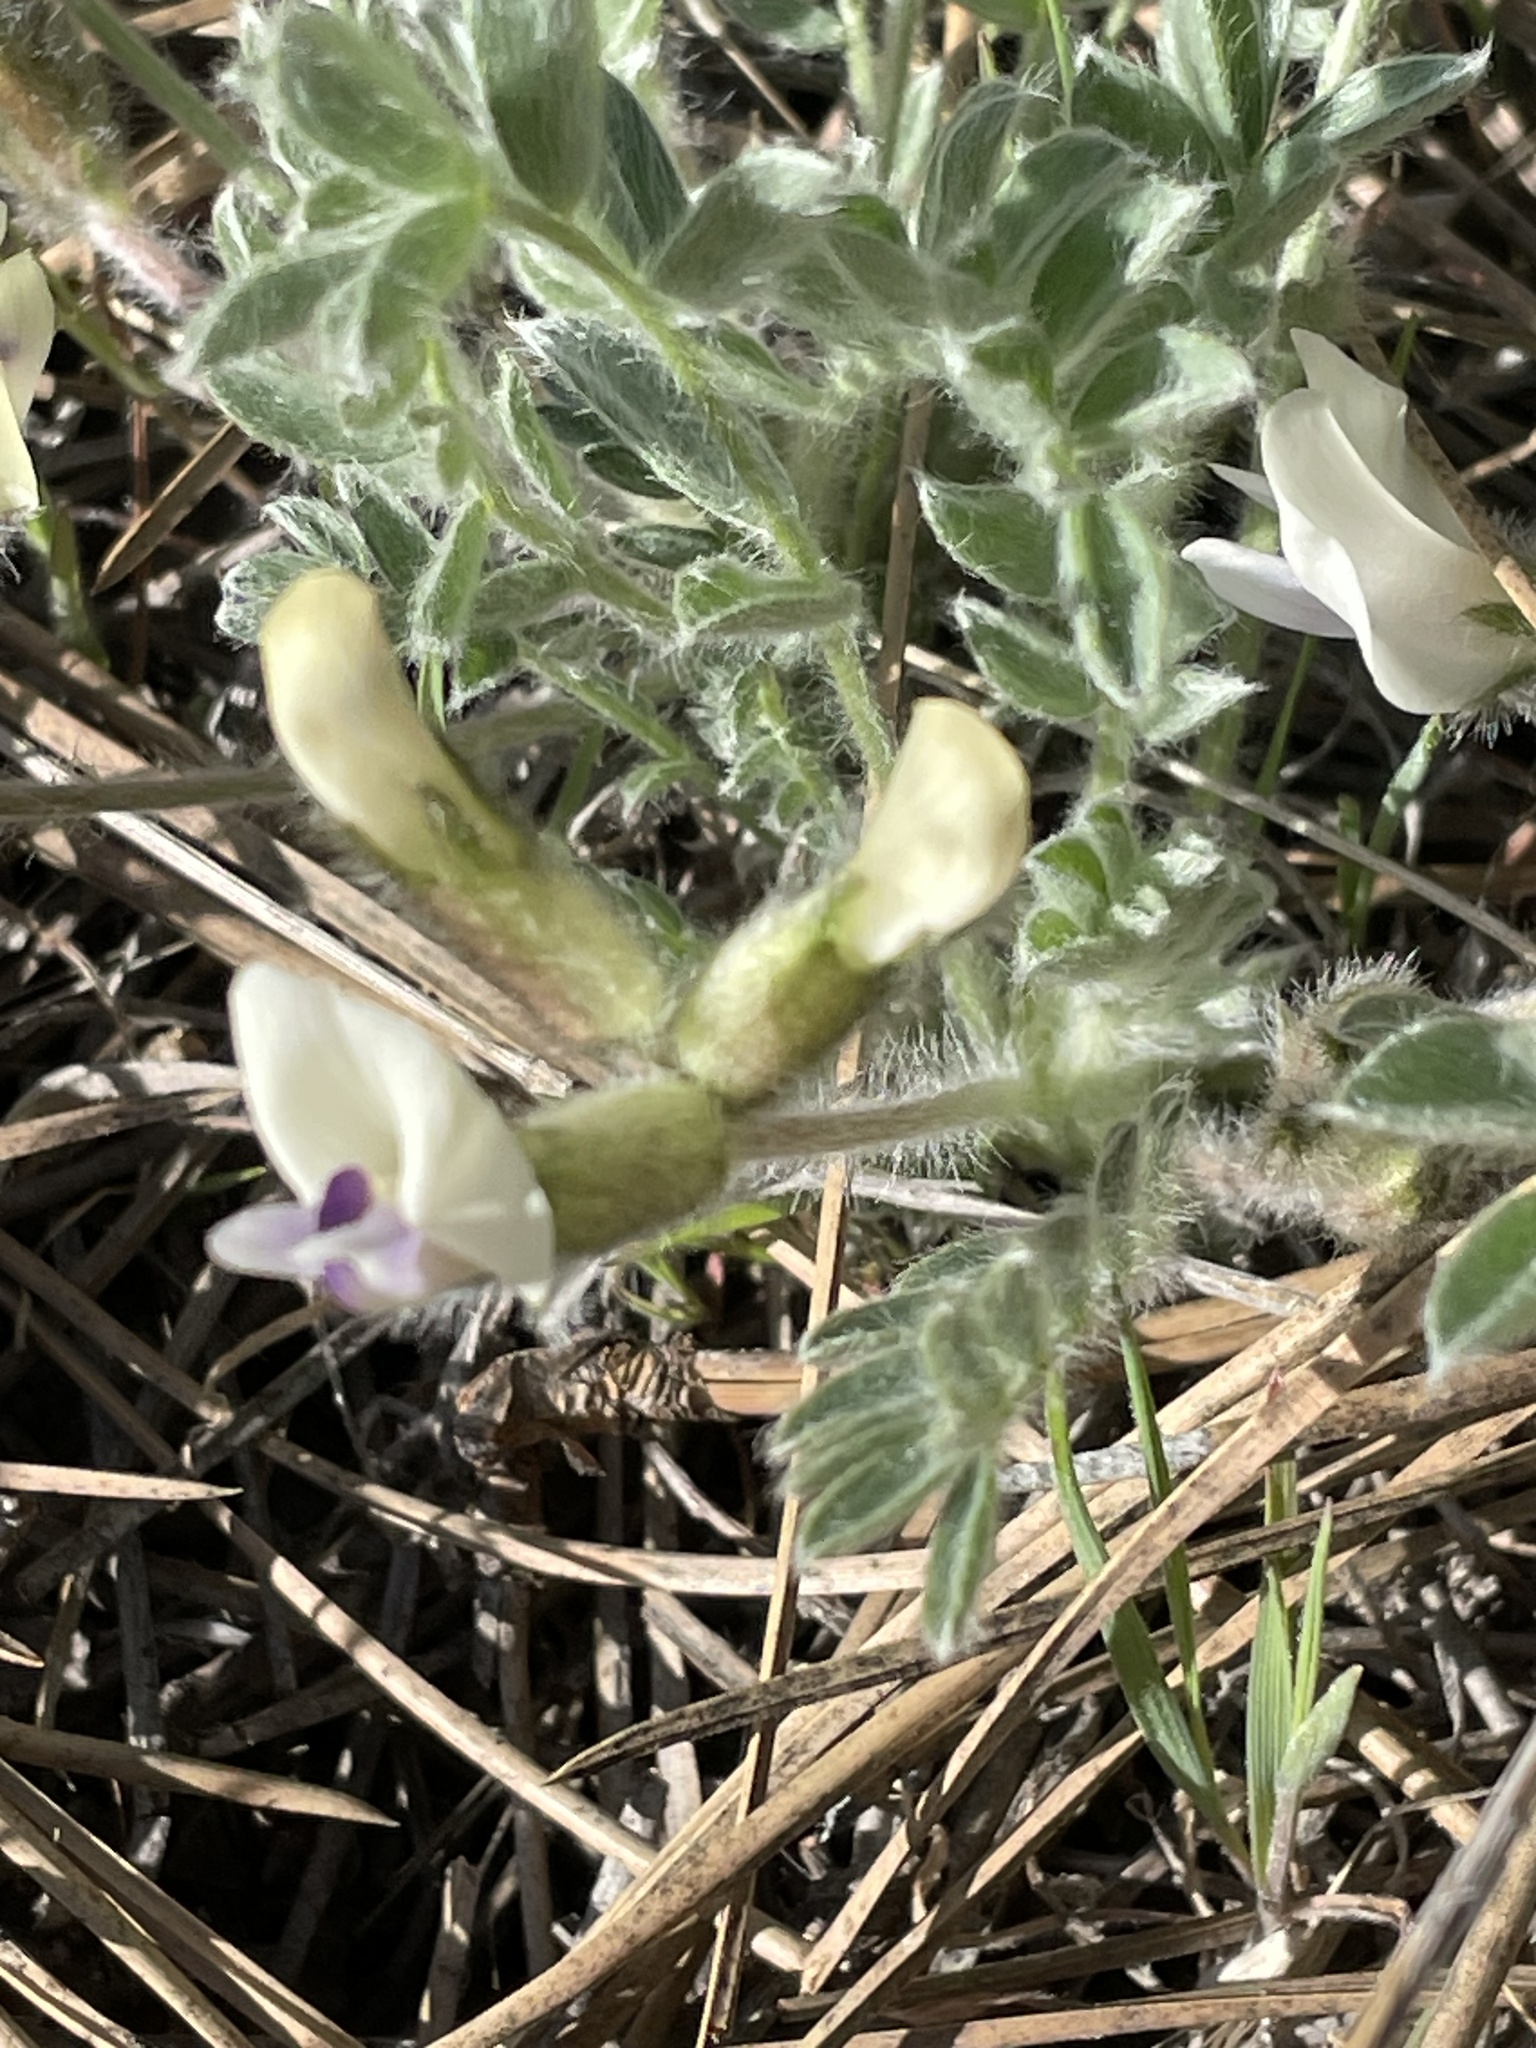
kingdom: Plantae
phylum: Tracheophyta
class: Magnoliopsida
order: Fabales
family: Fabaceae
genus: Astragalus
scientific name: Astragalus purshii
